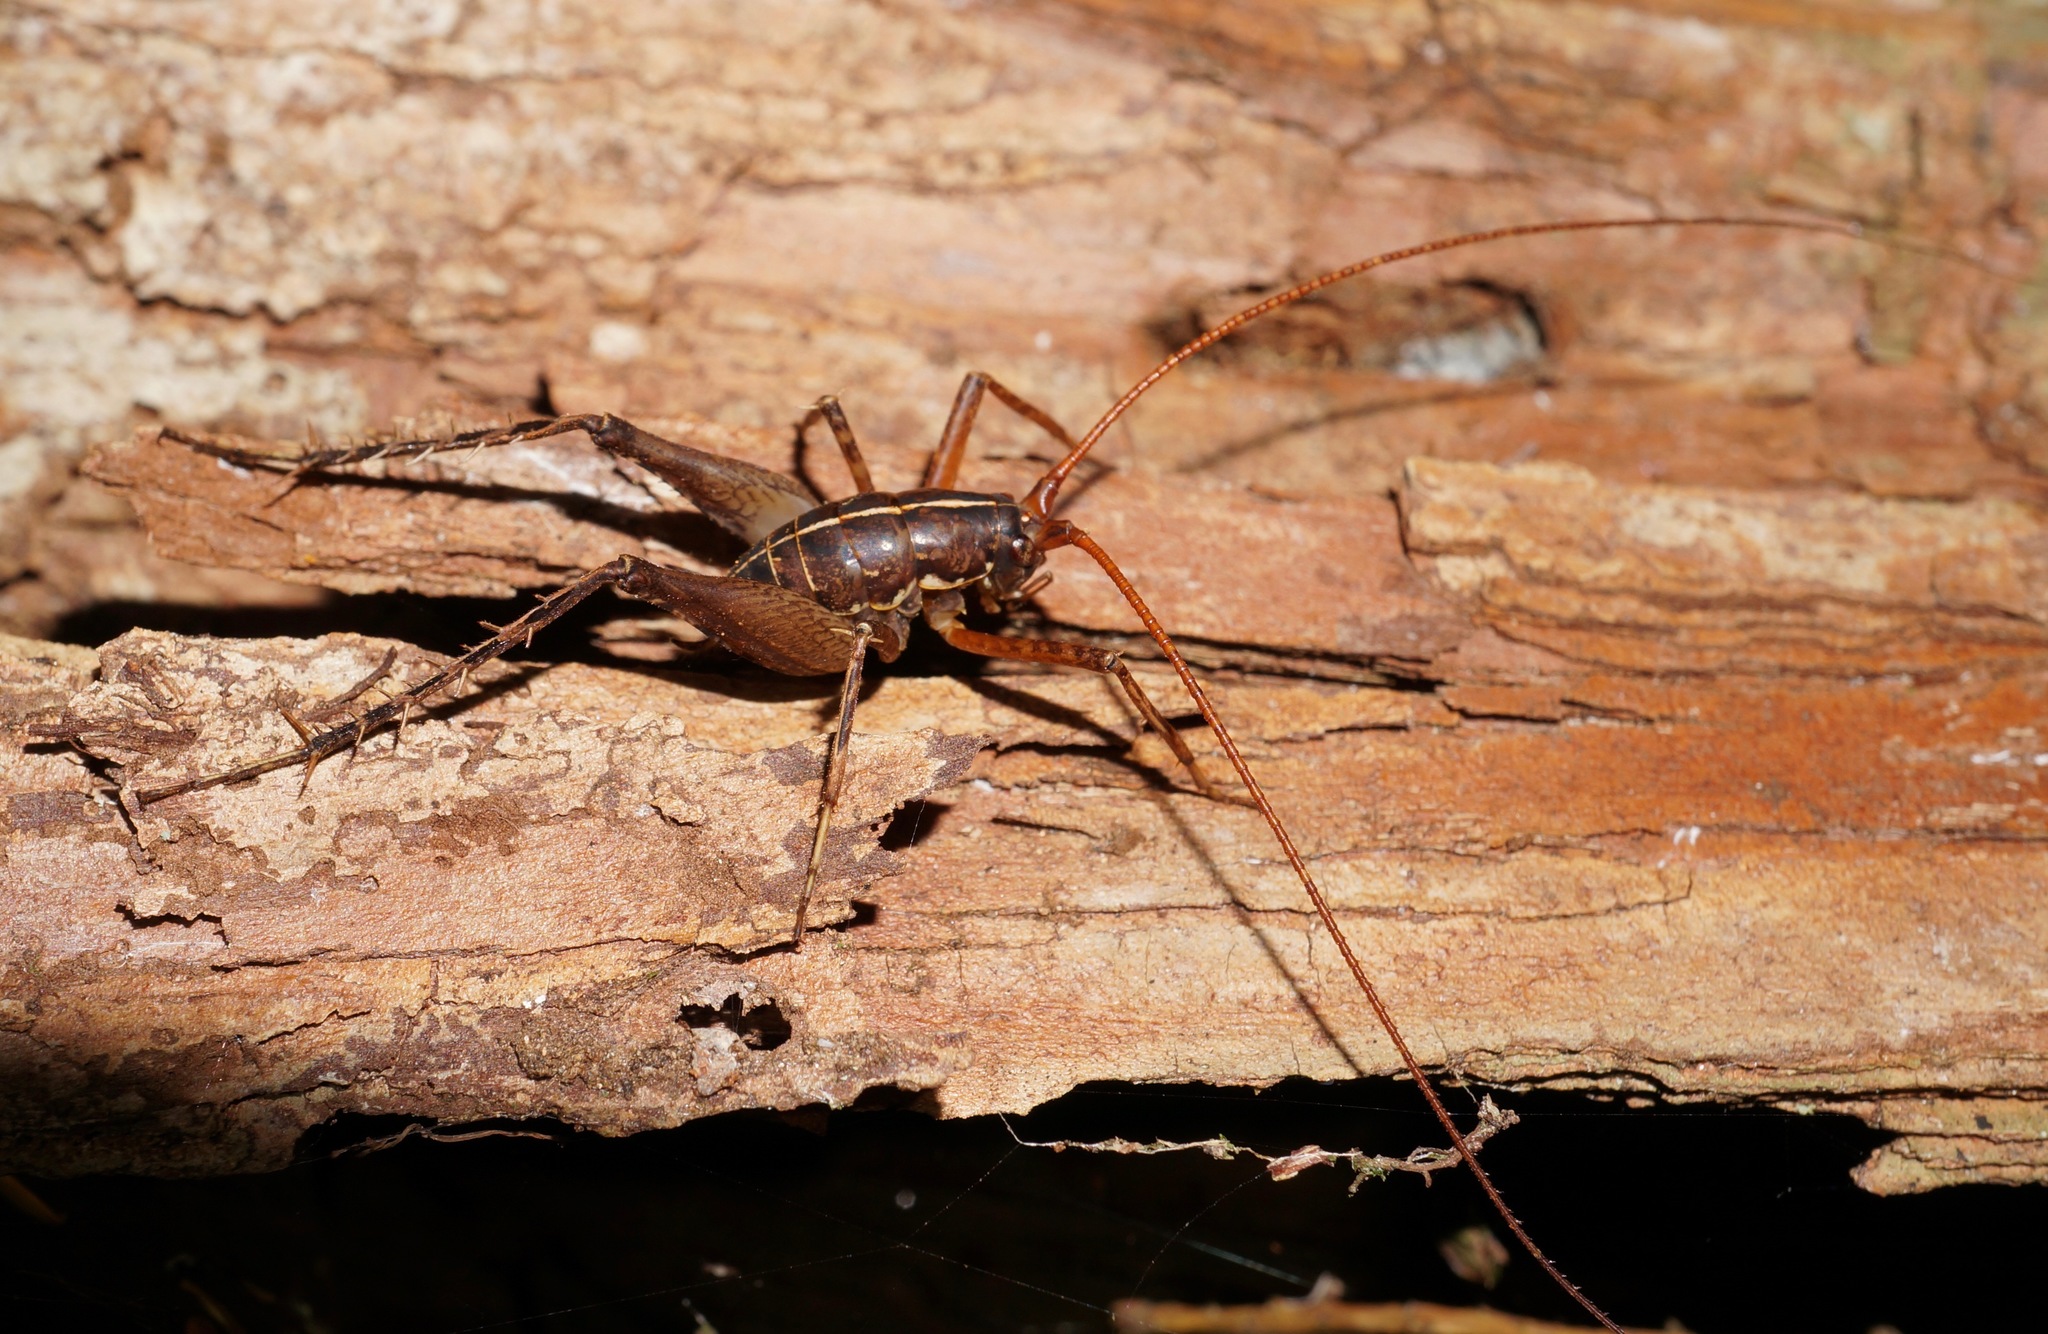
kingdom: Animalia
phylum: Arthropoda
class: Insecta
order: Orthoptera
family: Rhaphidophoridae
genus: Pleioplectron
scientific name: Pleioplectron crystallae
